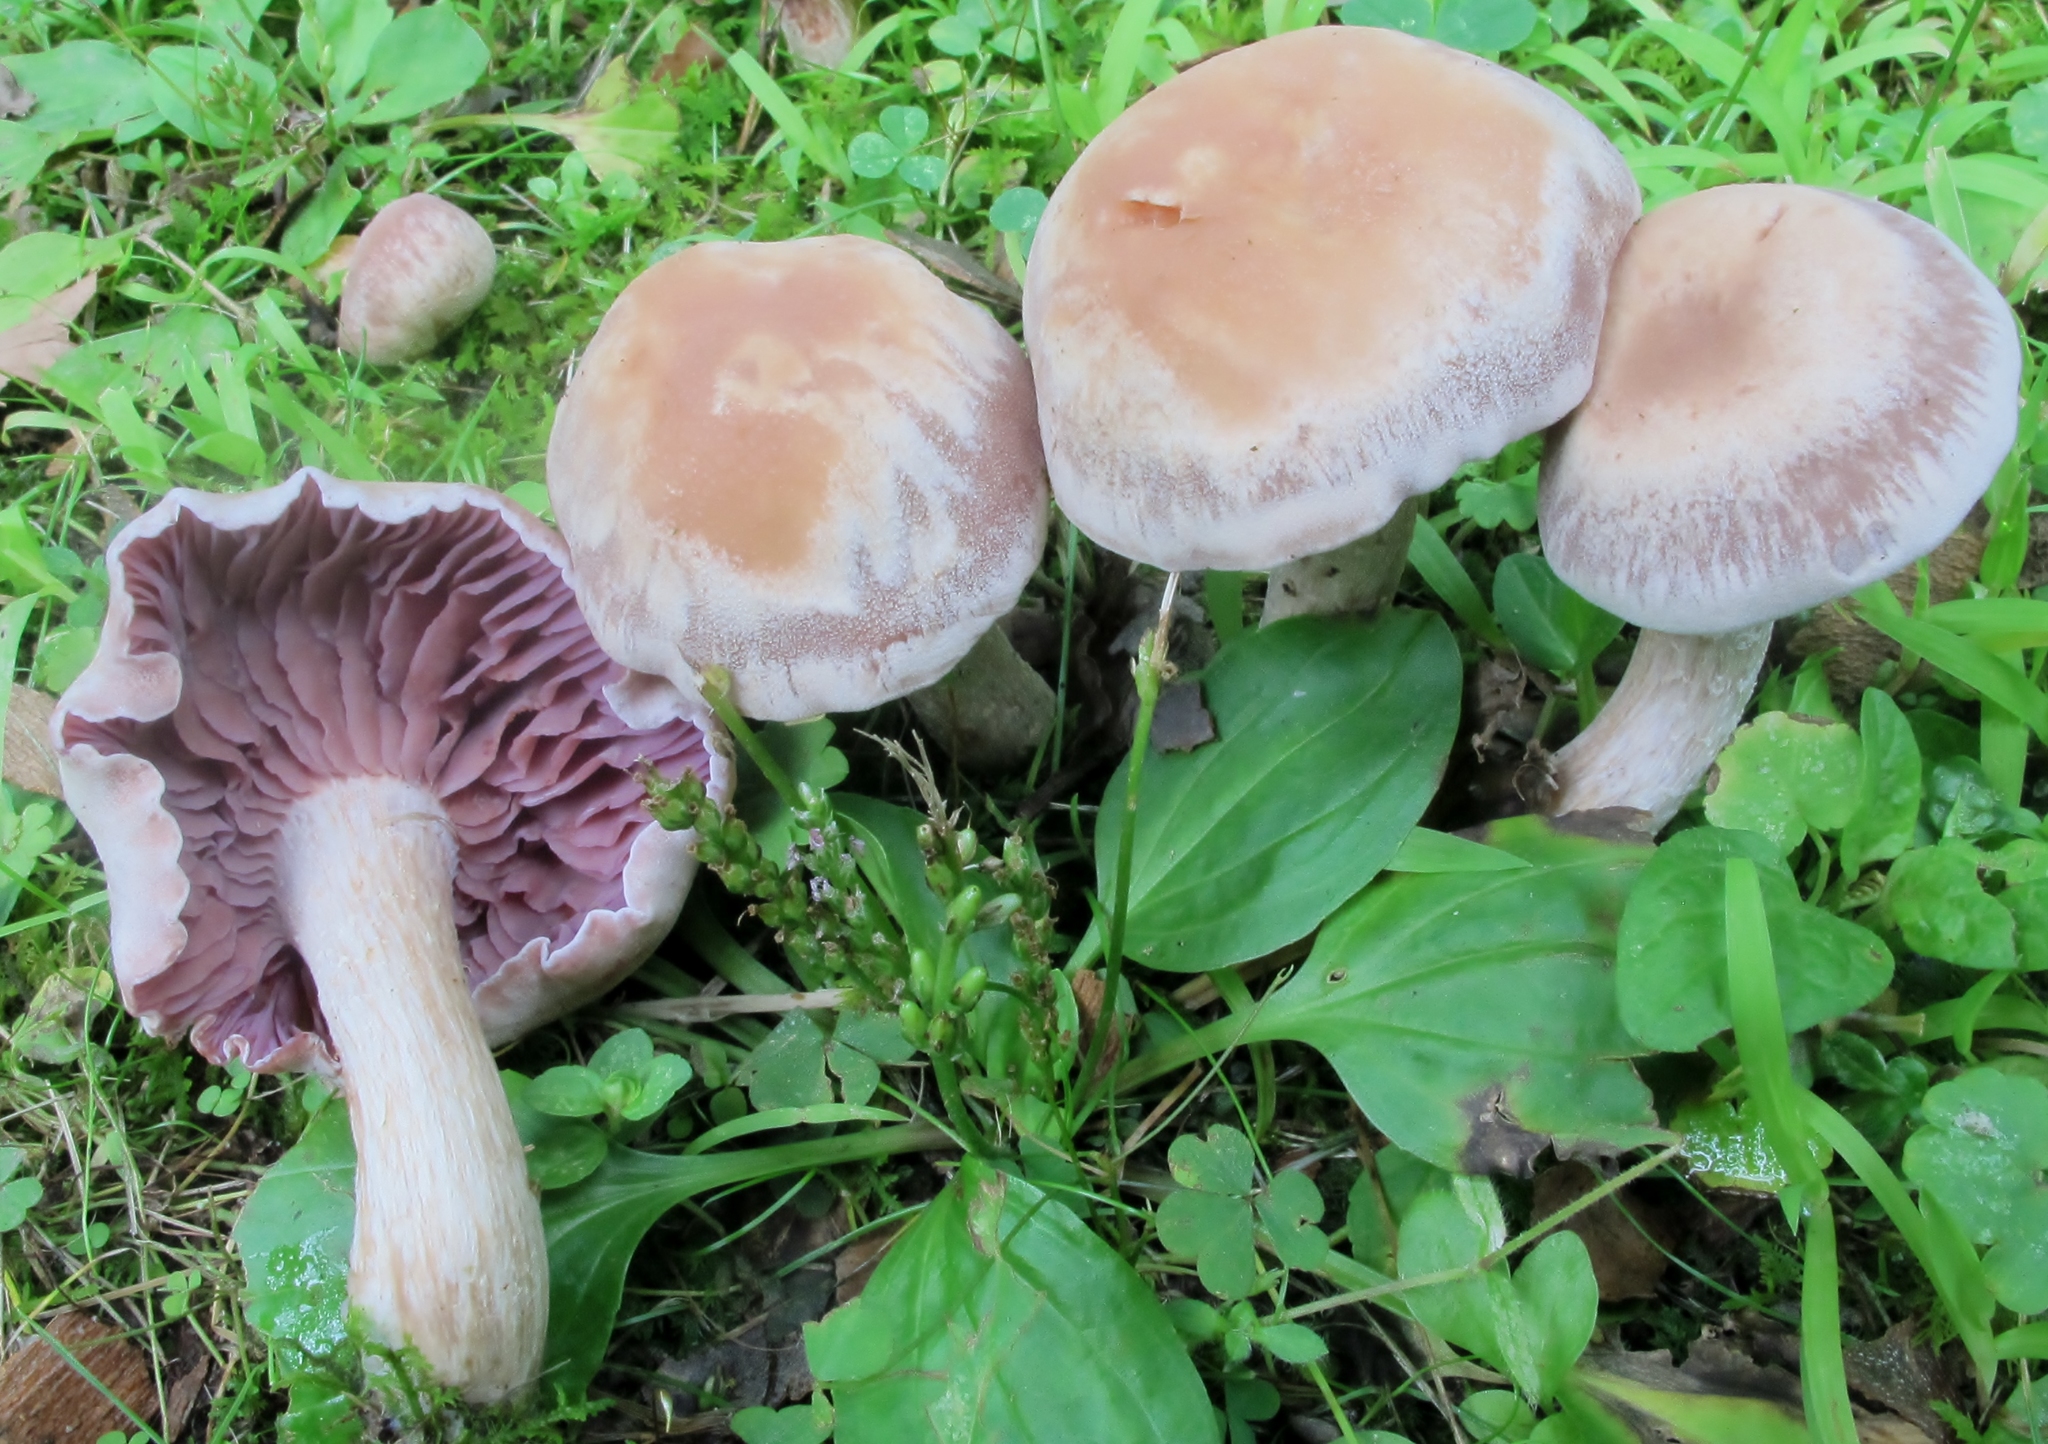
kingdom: Fungi
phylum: Basidiomycota
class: Agaricomycetes
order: Agaricales
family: Hydnangiaceae
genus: Laccaria
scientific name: Laccaria ochropurpurea
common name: Purple laccaria
